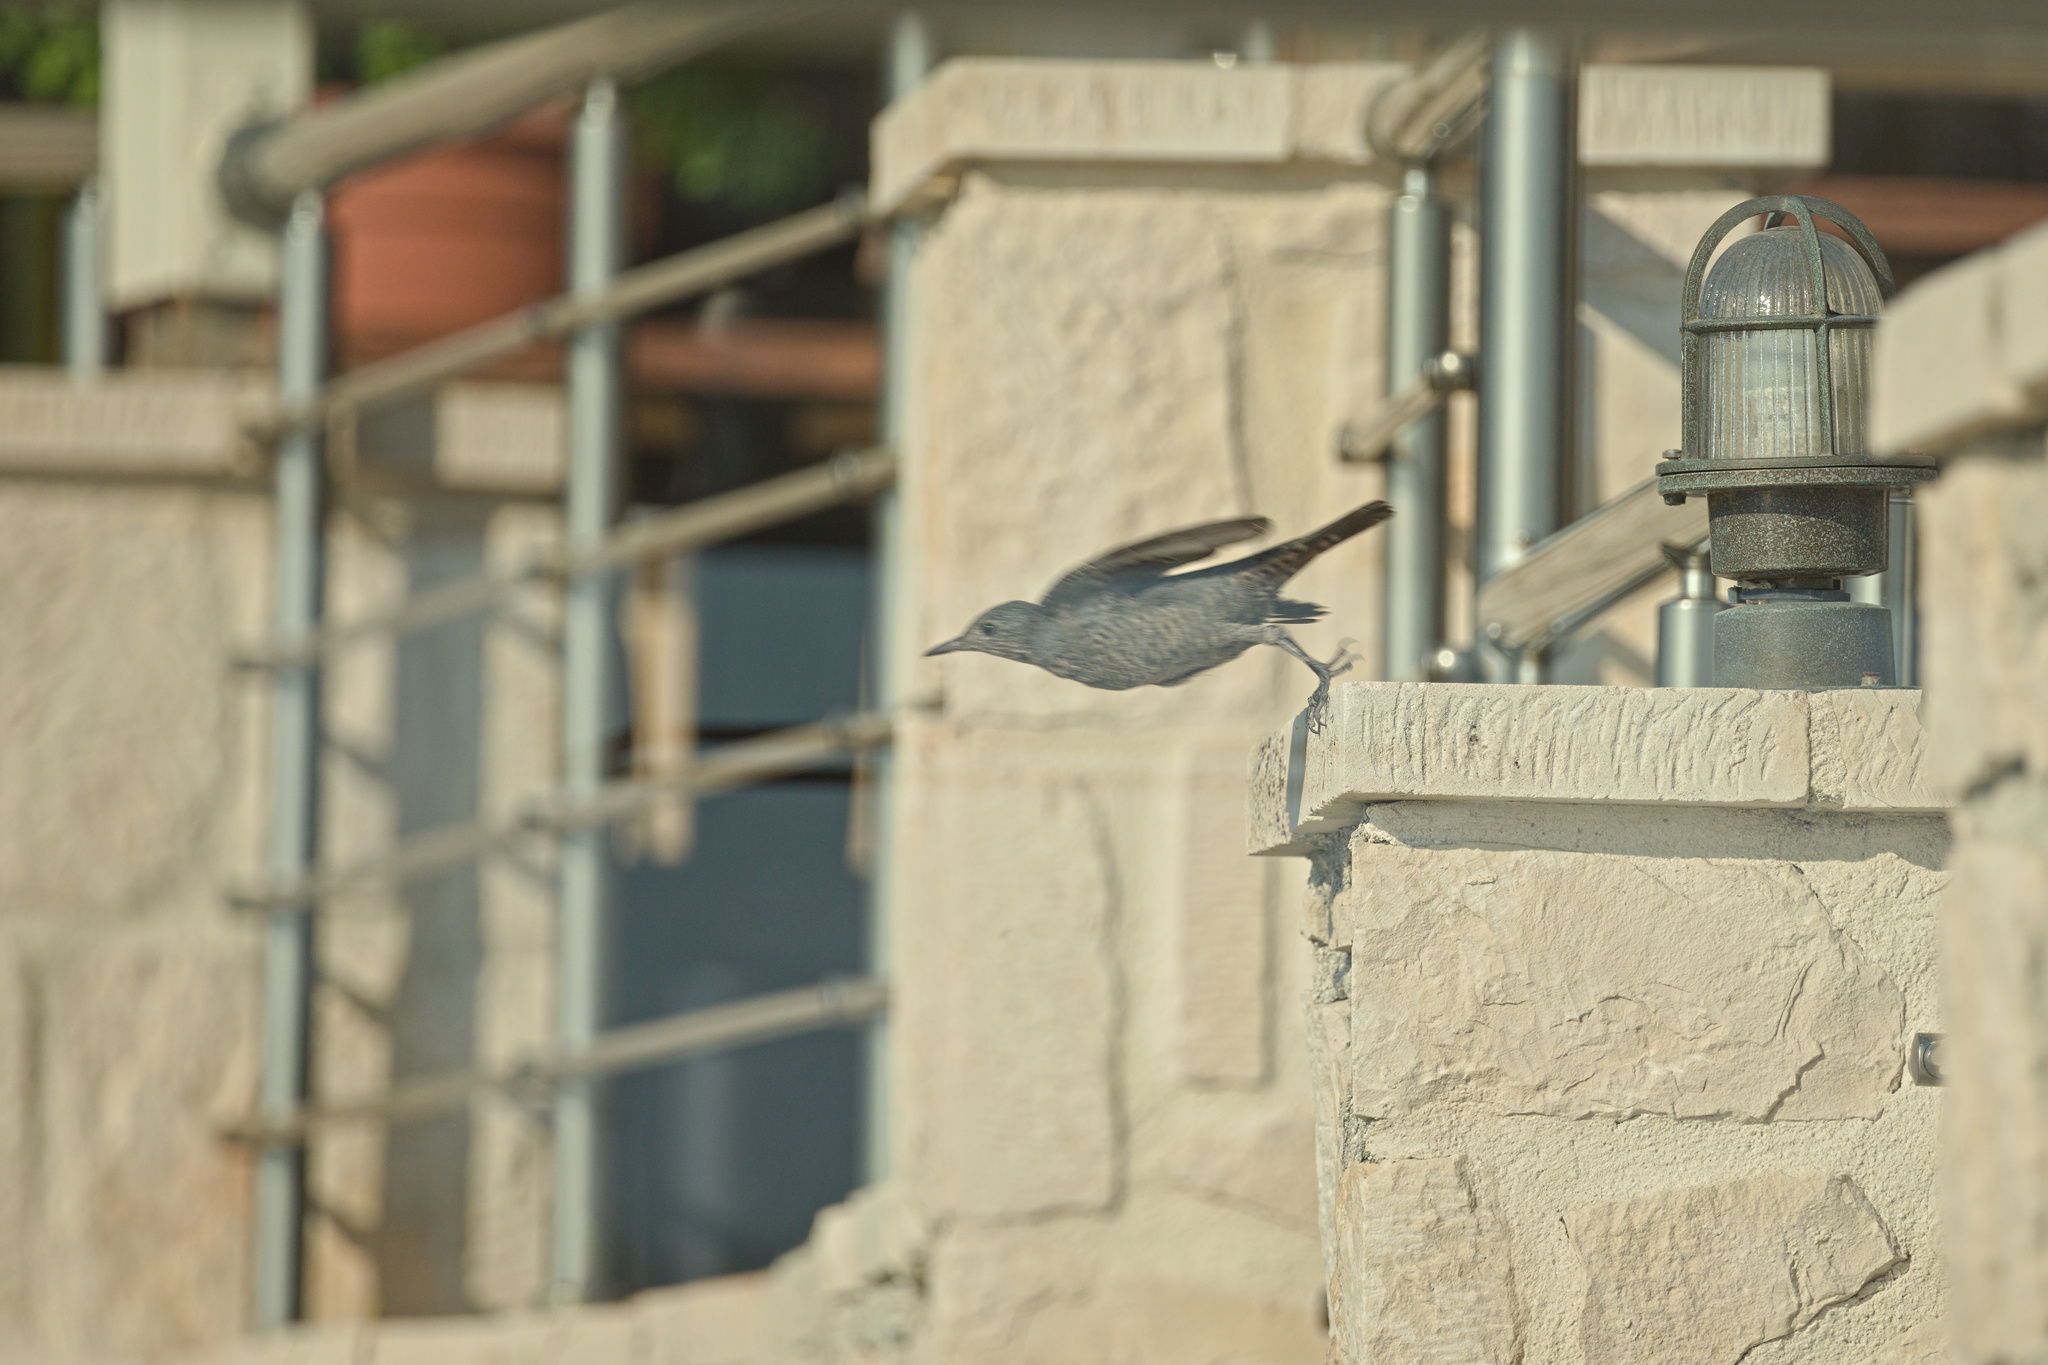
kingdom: Animalia
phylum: Chordata
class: Aves
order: Passeriformes
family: Muscicapidae
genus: Monticola
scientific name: Monticola solitarius
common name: Blue rock thrush
